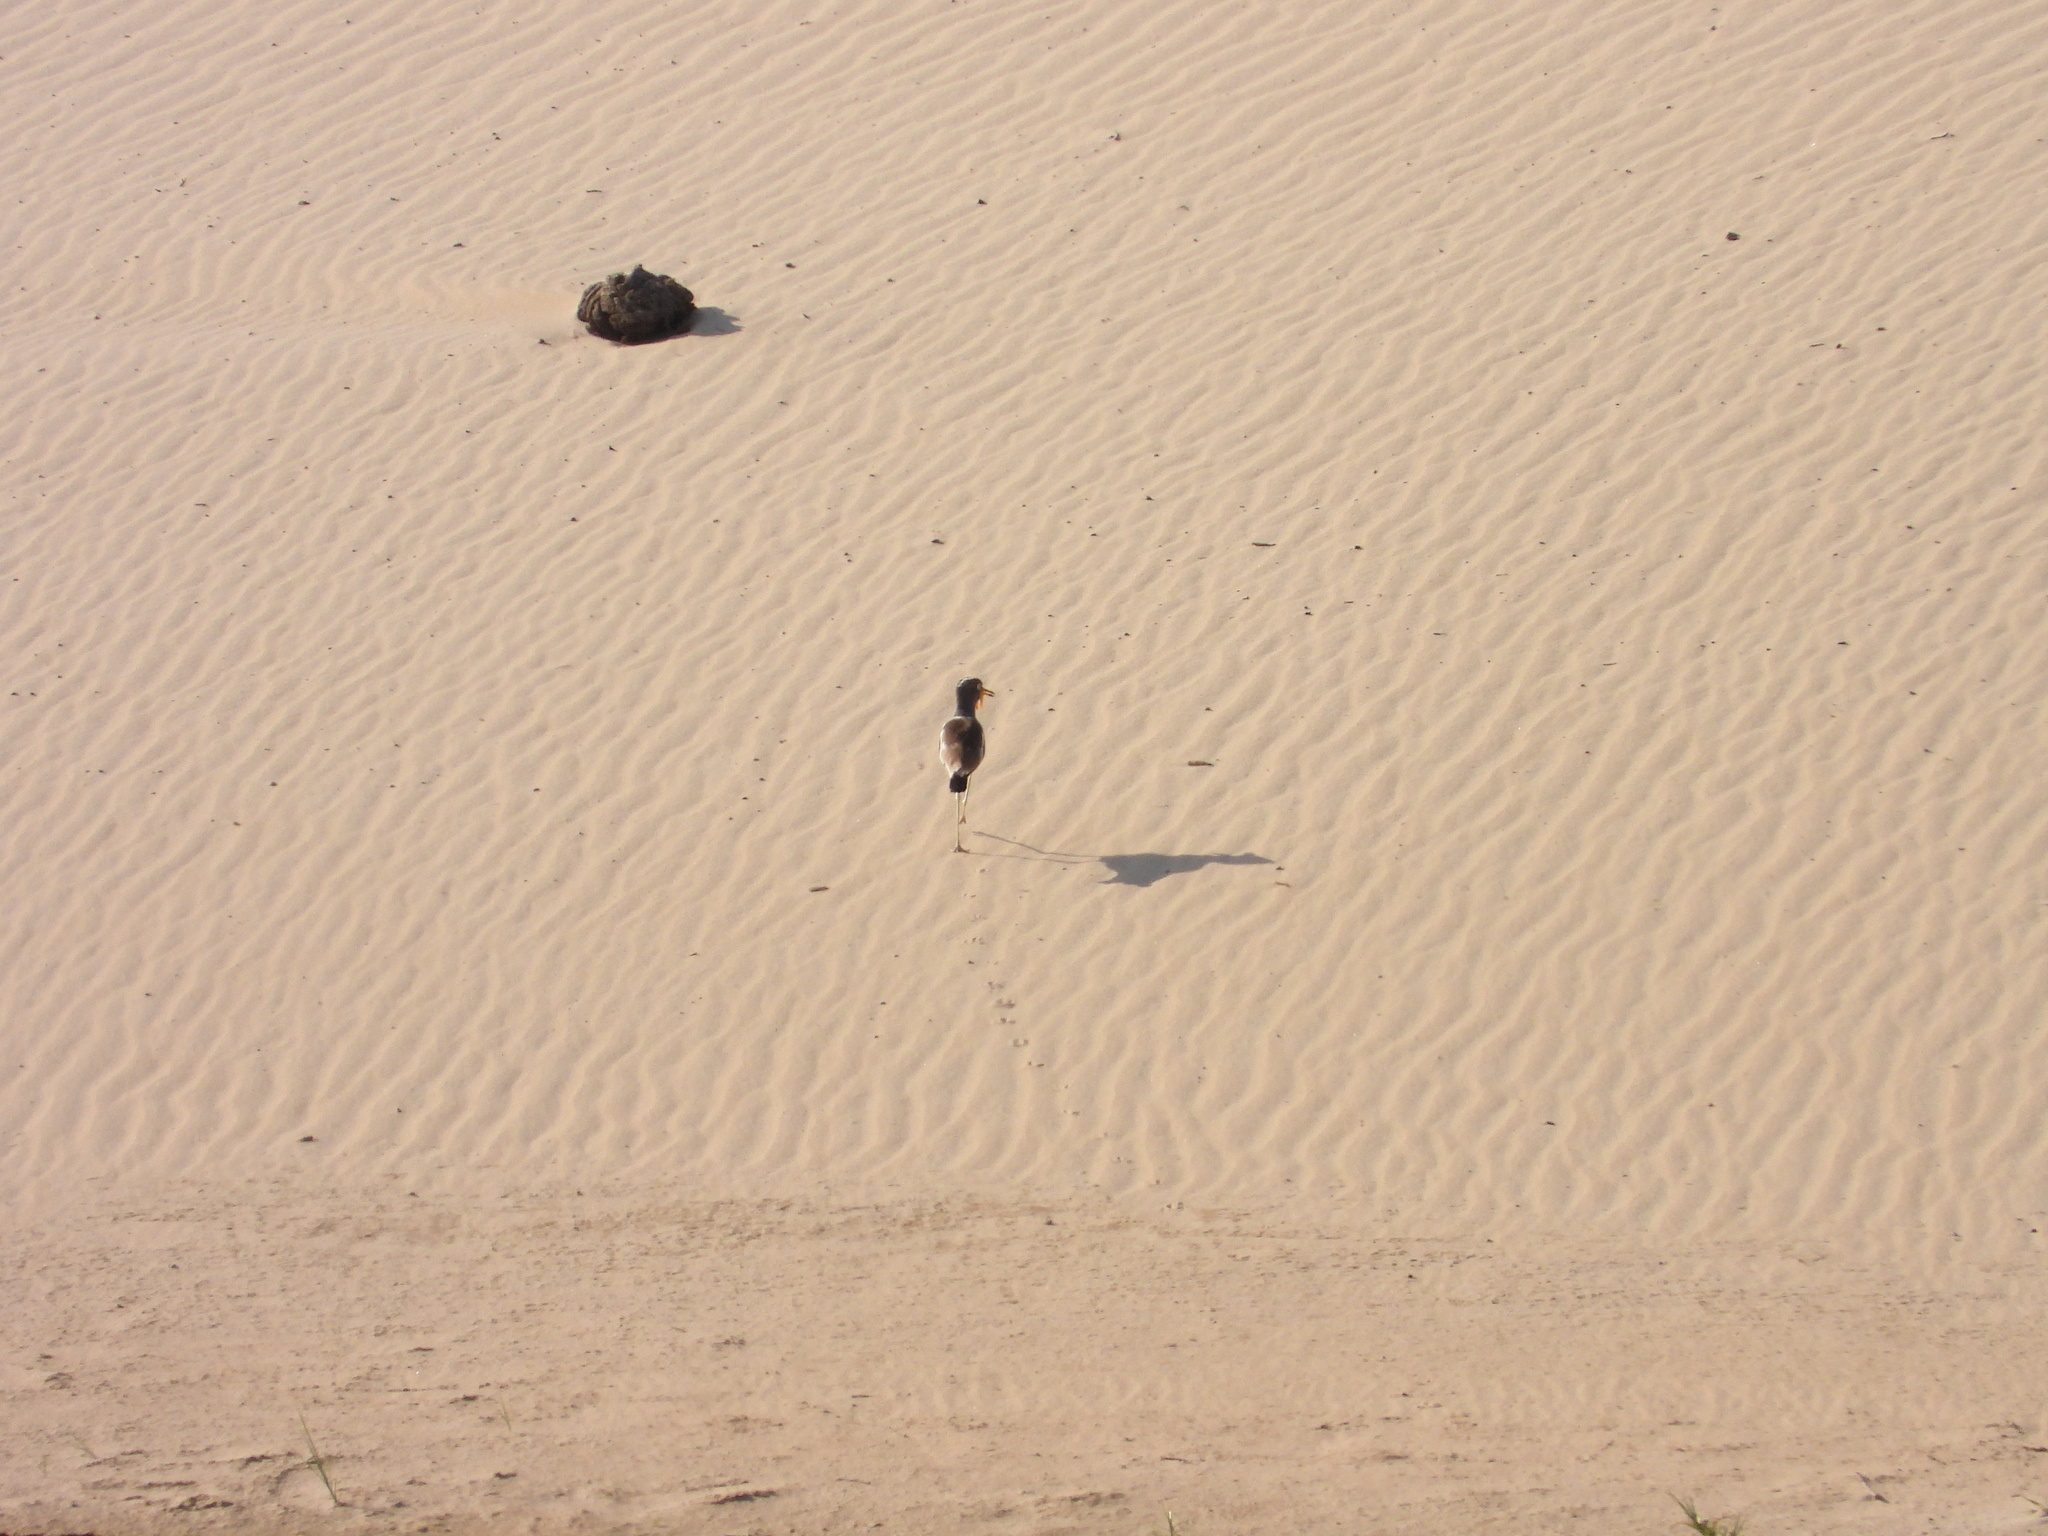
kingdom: Animalia
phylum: Chordata
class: Aves
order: Charadriiformes
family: Charadriidae
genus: Vanellus
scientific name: Vanellus albiceps
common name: White-crowned lapwing
